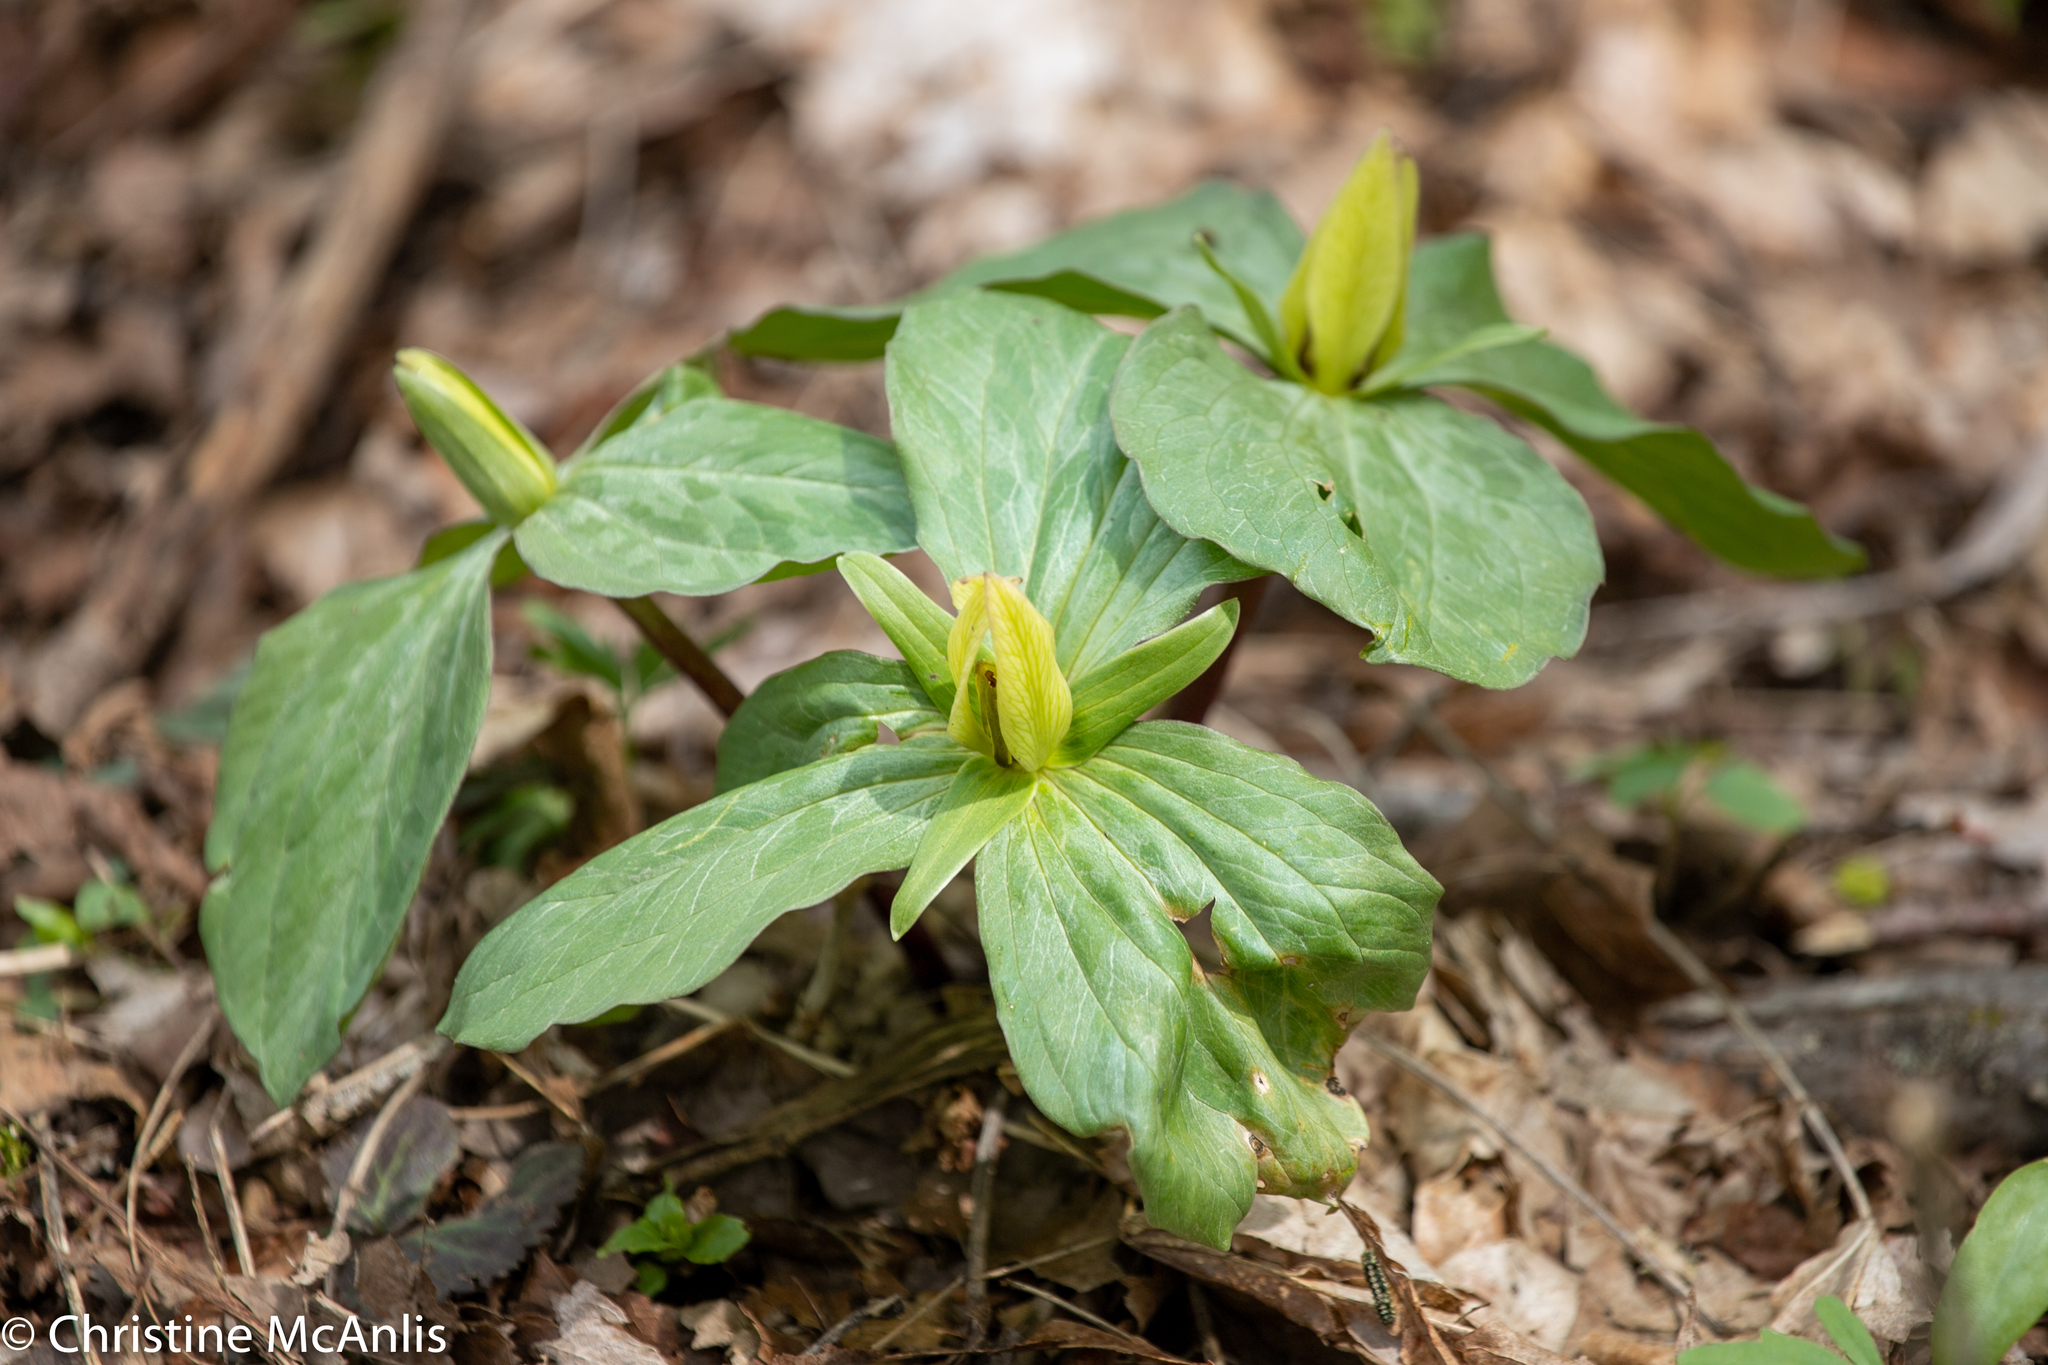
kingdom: Plantae
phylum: Tracheophyta
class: Liliopsida
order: Liliales
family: Melanthiaceae
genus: Trillium
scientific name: Trillium sessile
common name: Sessile trillium
